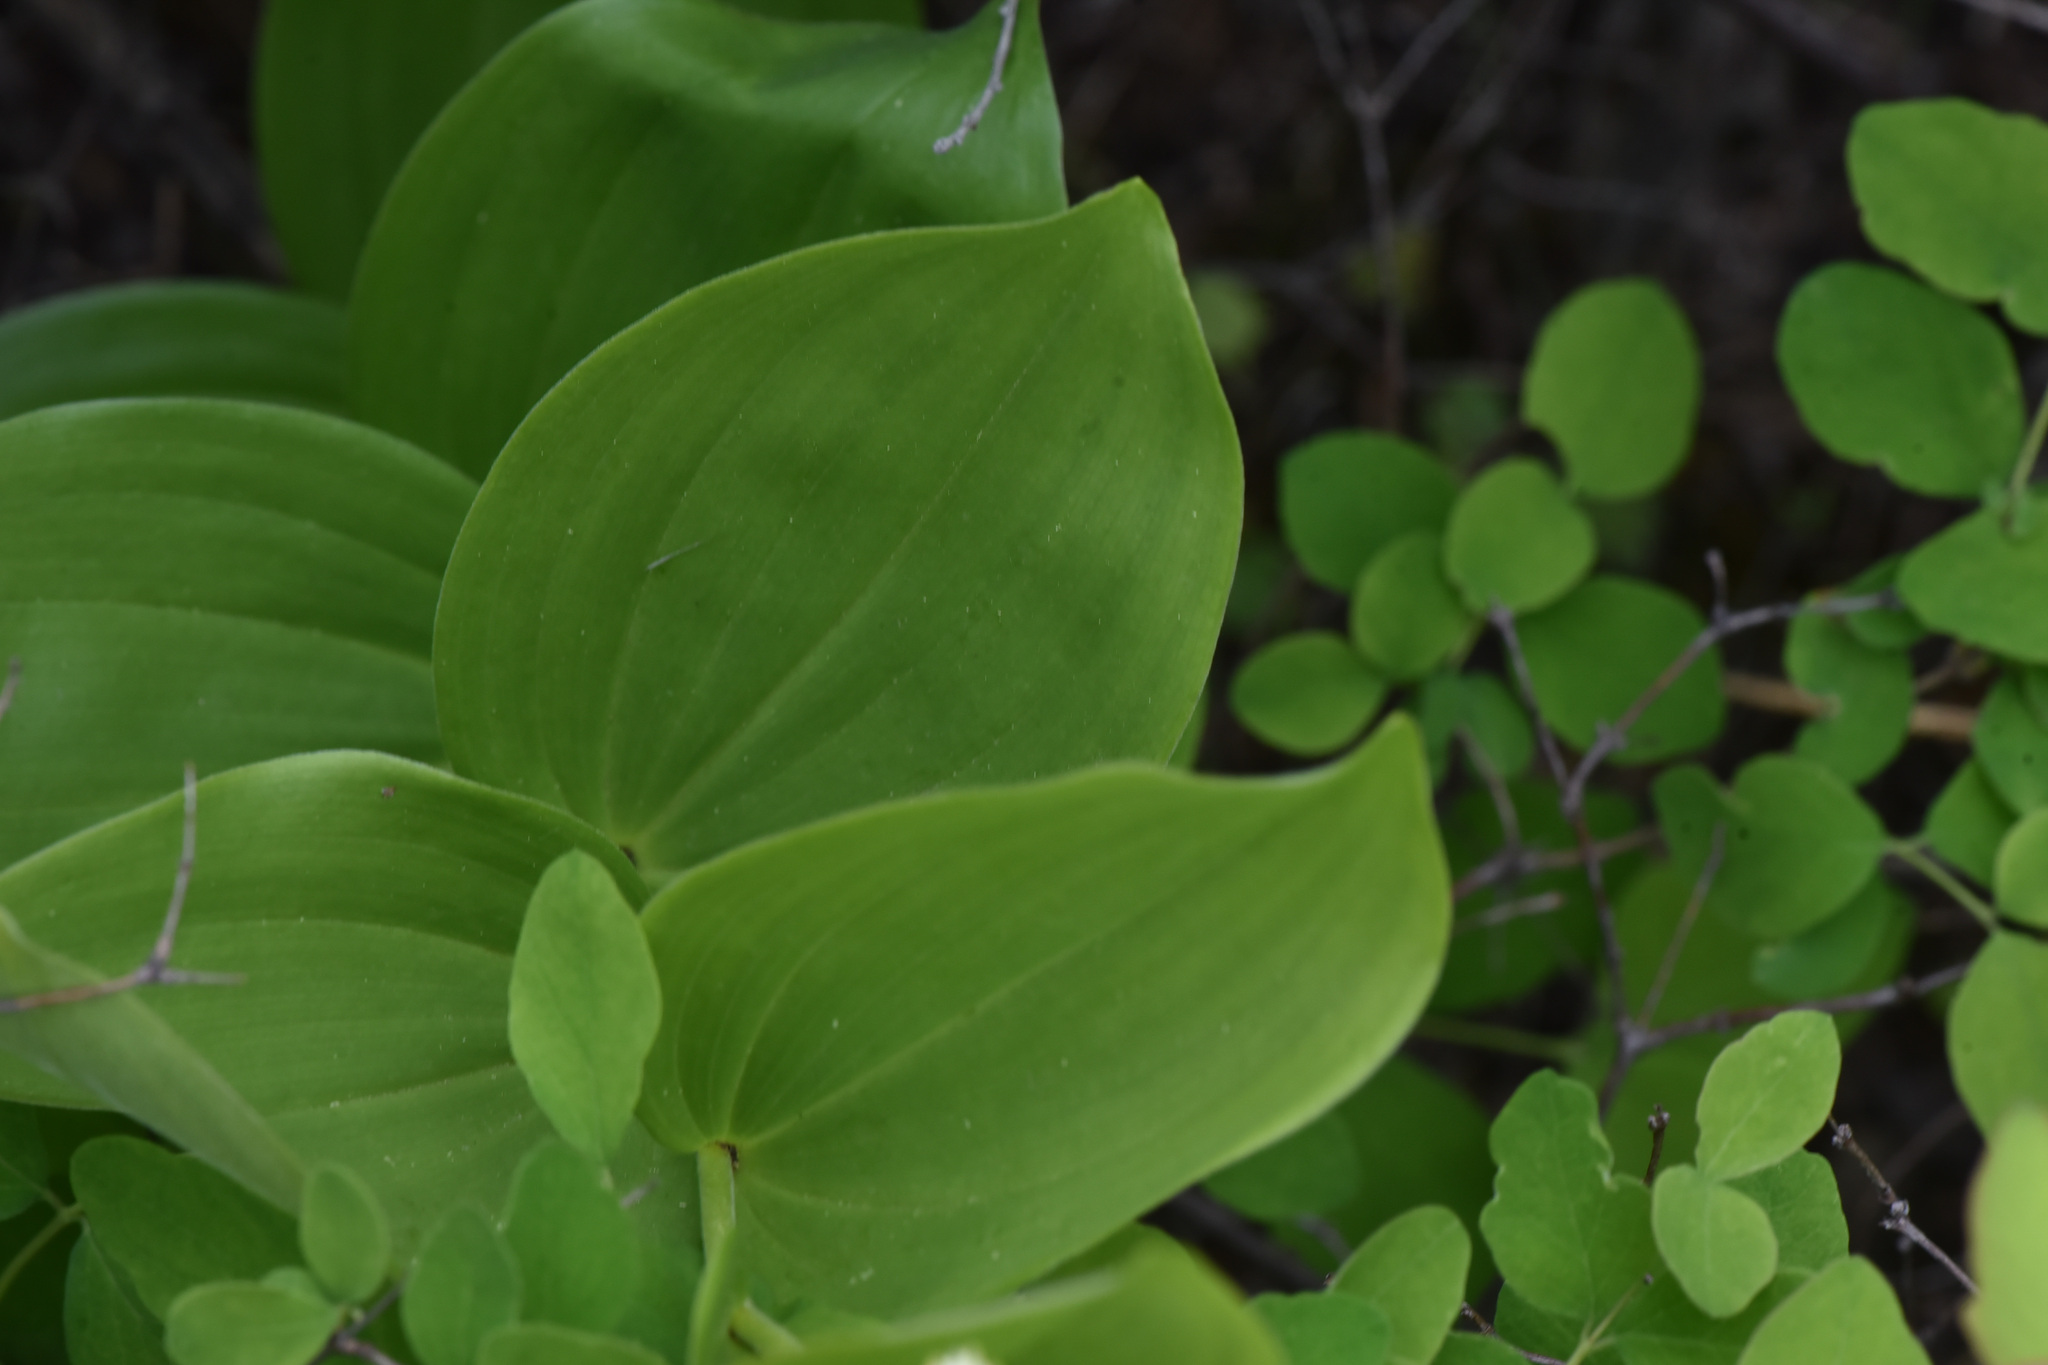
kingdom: Plantae
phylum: Tracheophyta
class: Liliopsida
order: Asparagales
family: Asparagaceae
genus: Maianthemum
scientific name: Maianthemum racemosum
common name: False spikenard
